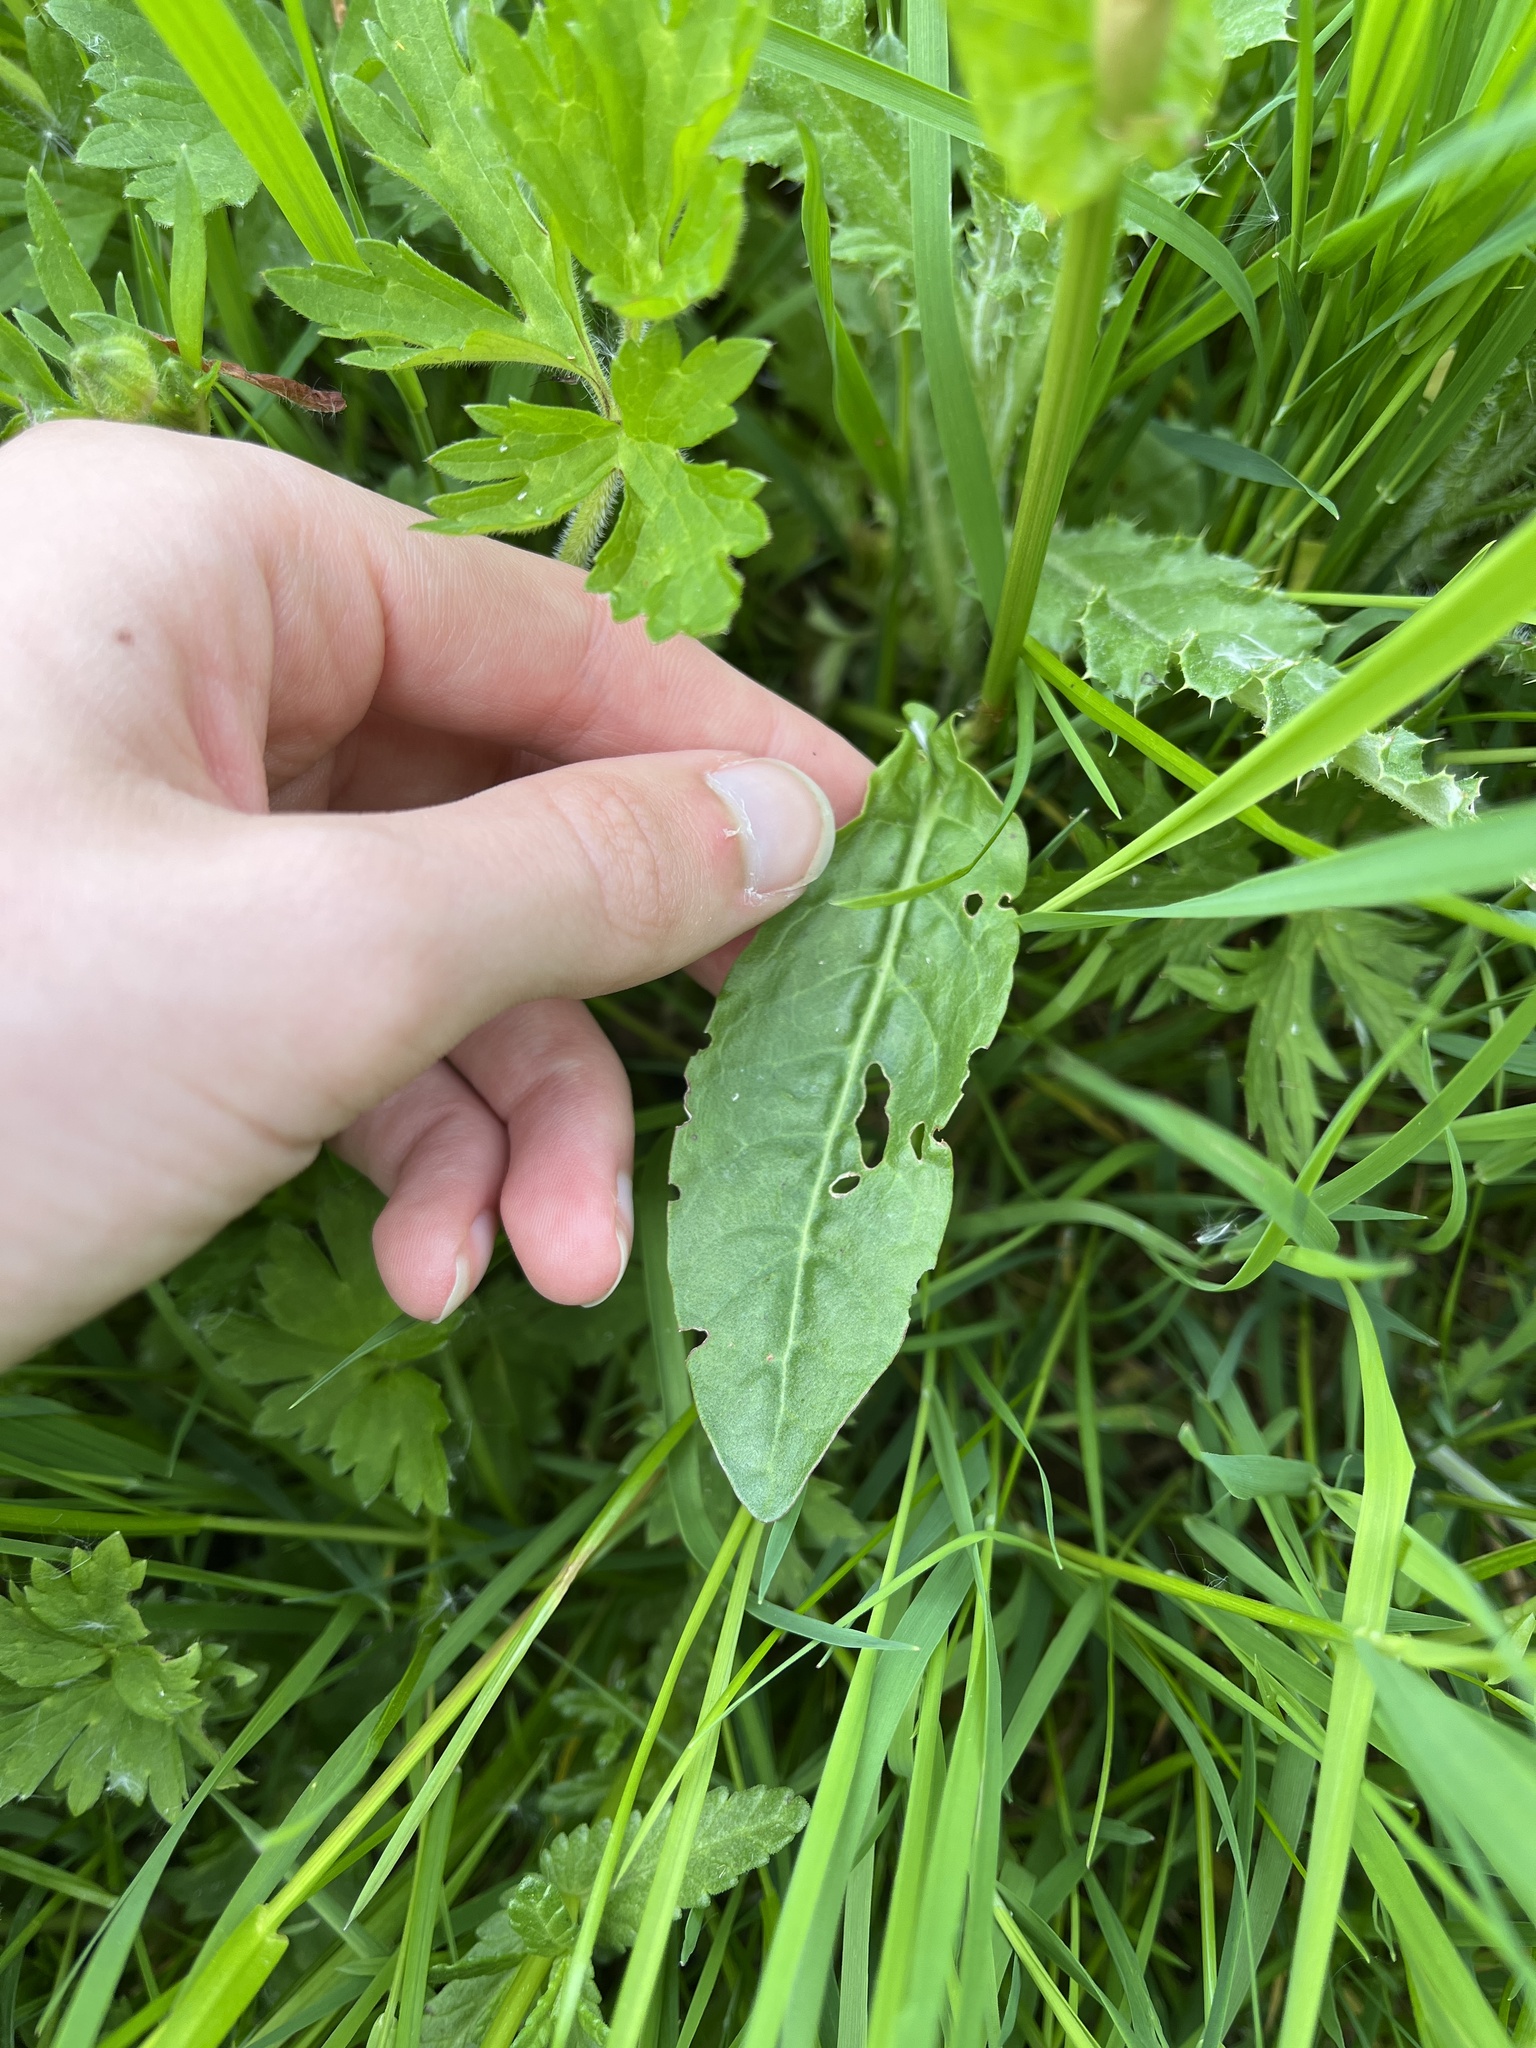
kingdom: Plantae
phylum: Tracheophyta
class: Magnoliopsida
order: Caryophyllales
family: Polygonaceae
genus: Rumex
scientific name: Rumex acetosa
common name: Garden sorrel
